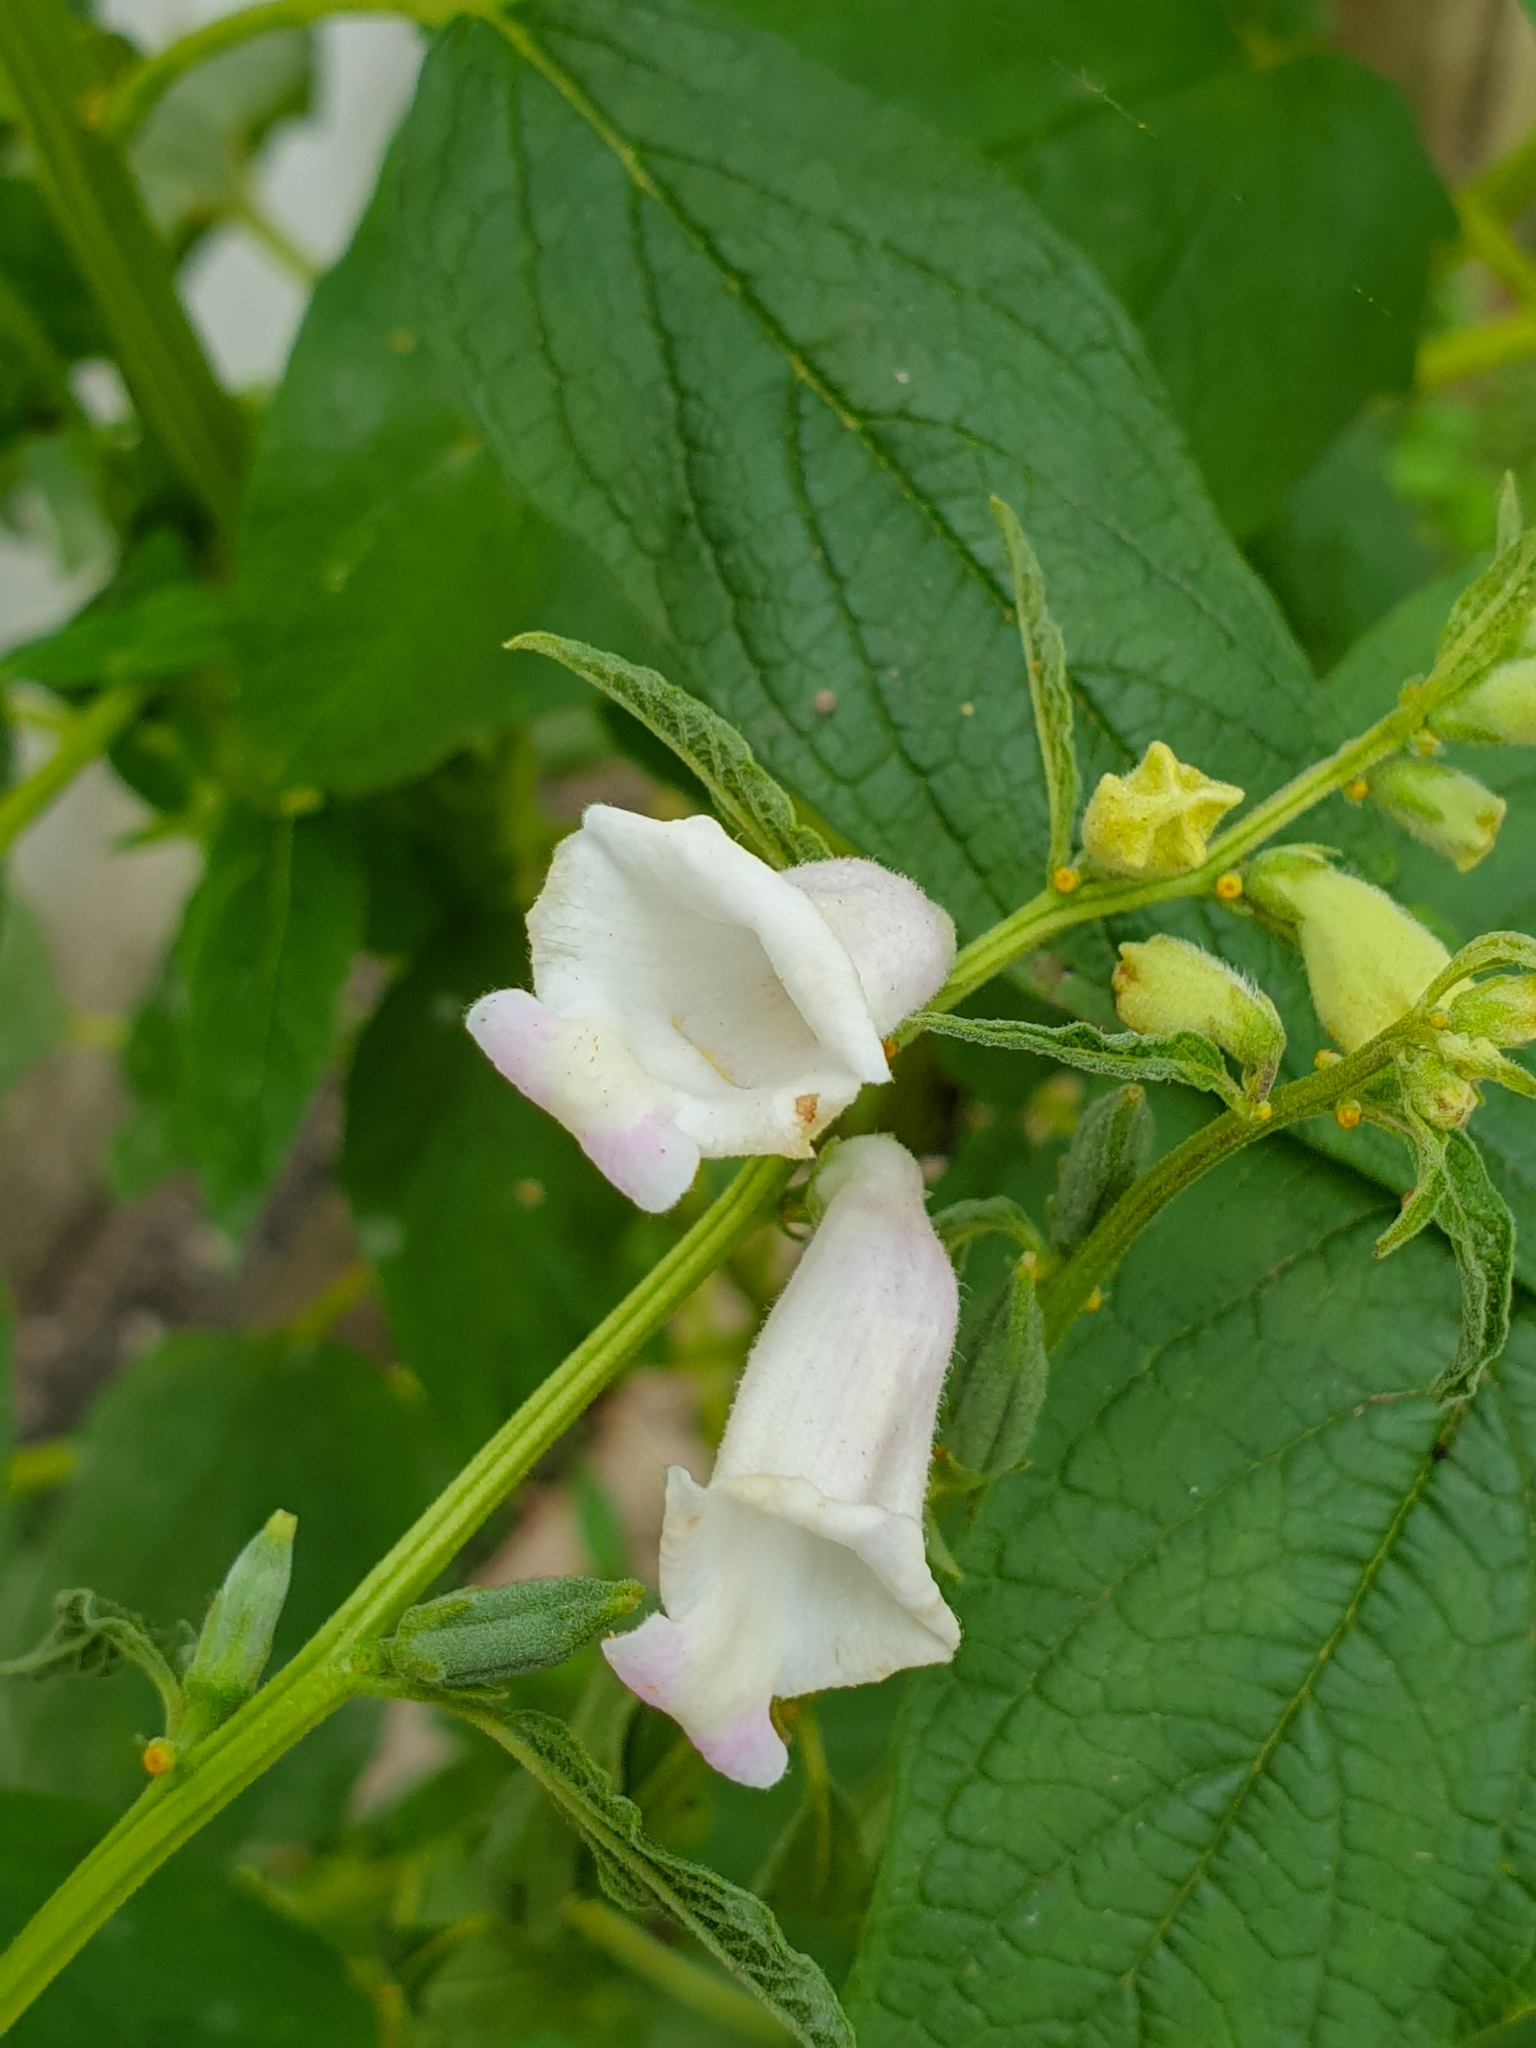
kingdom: Plantae
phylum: Tracheophyta
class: Magnoliopsida
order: Lamiales
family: Pedaliaceae
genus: Sesamum
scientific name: Sesamum indicum
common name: Sesame
